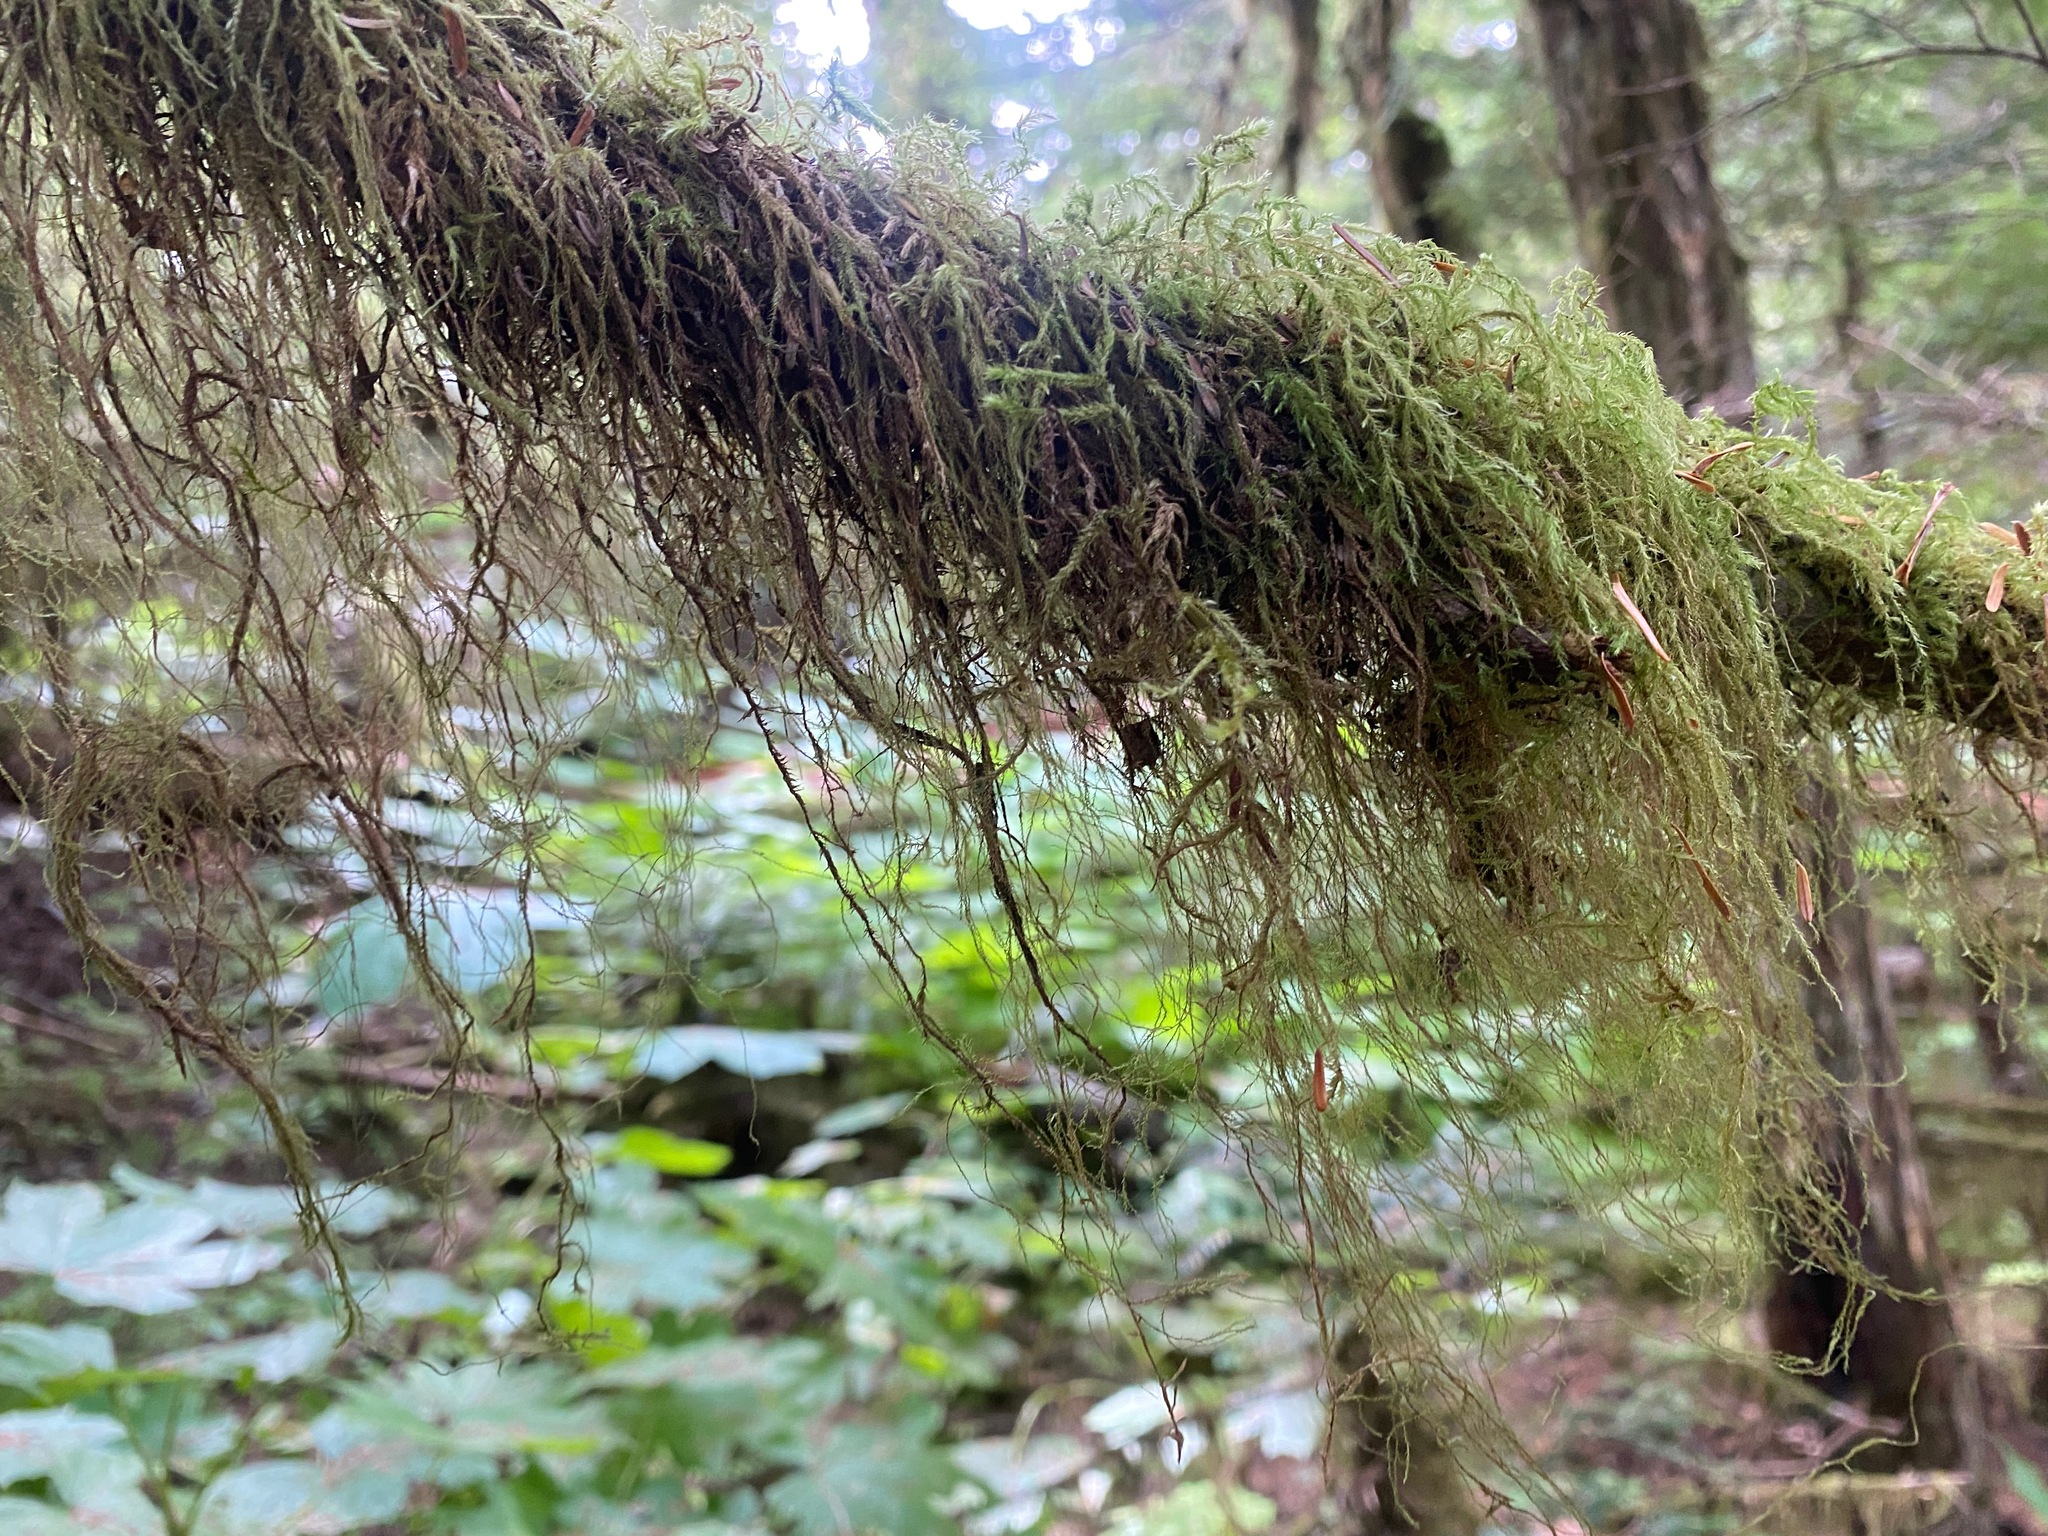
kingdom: Plantae
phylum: Bryophyta
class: Bryopsida
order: Hypnales
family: Lembophyllaceae
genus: Pseudisothecium
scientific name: Pseudisothecium stoloniferum
